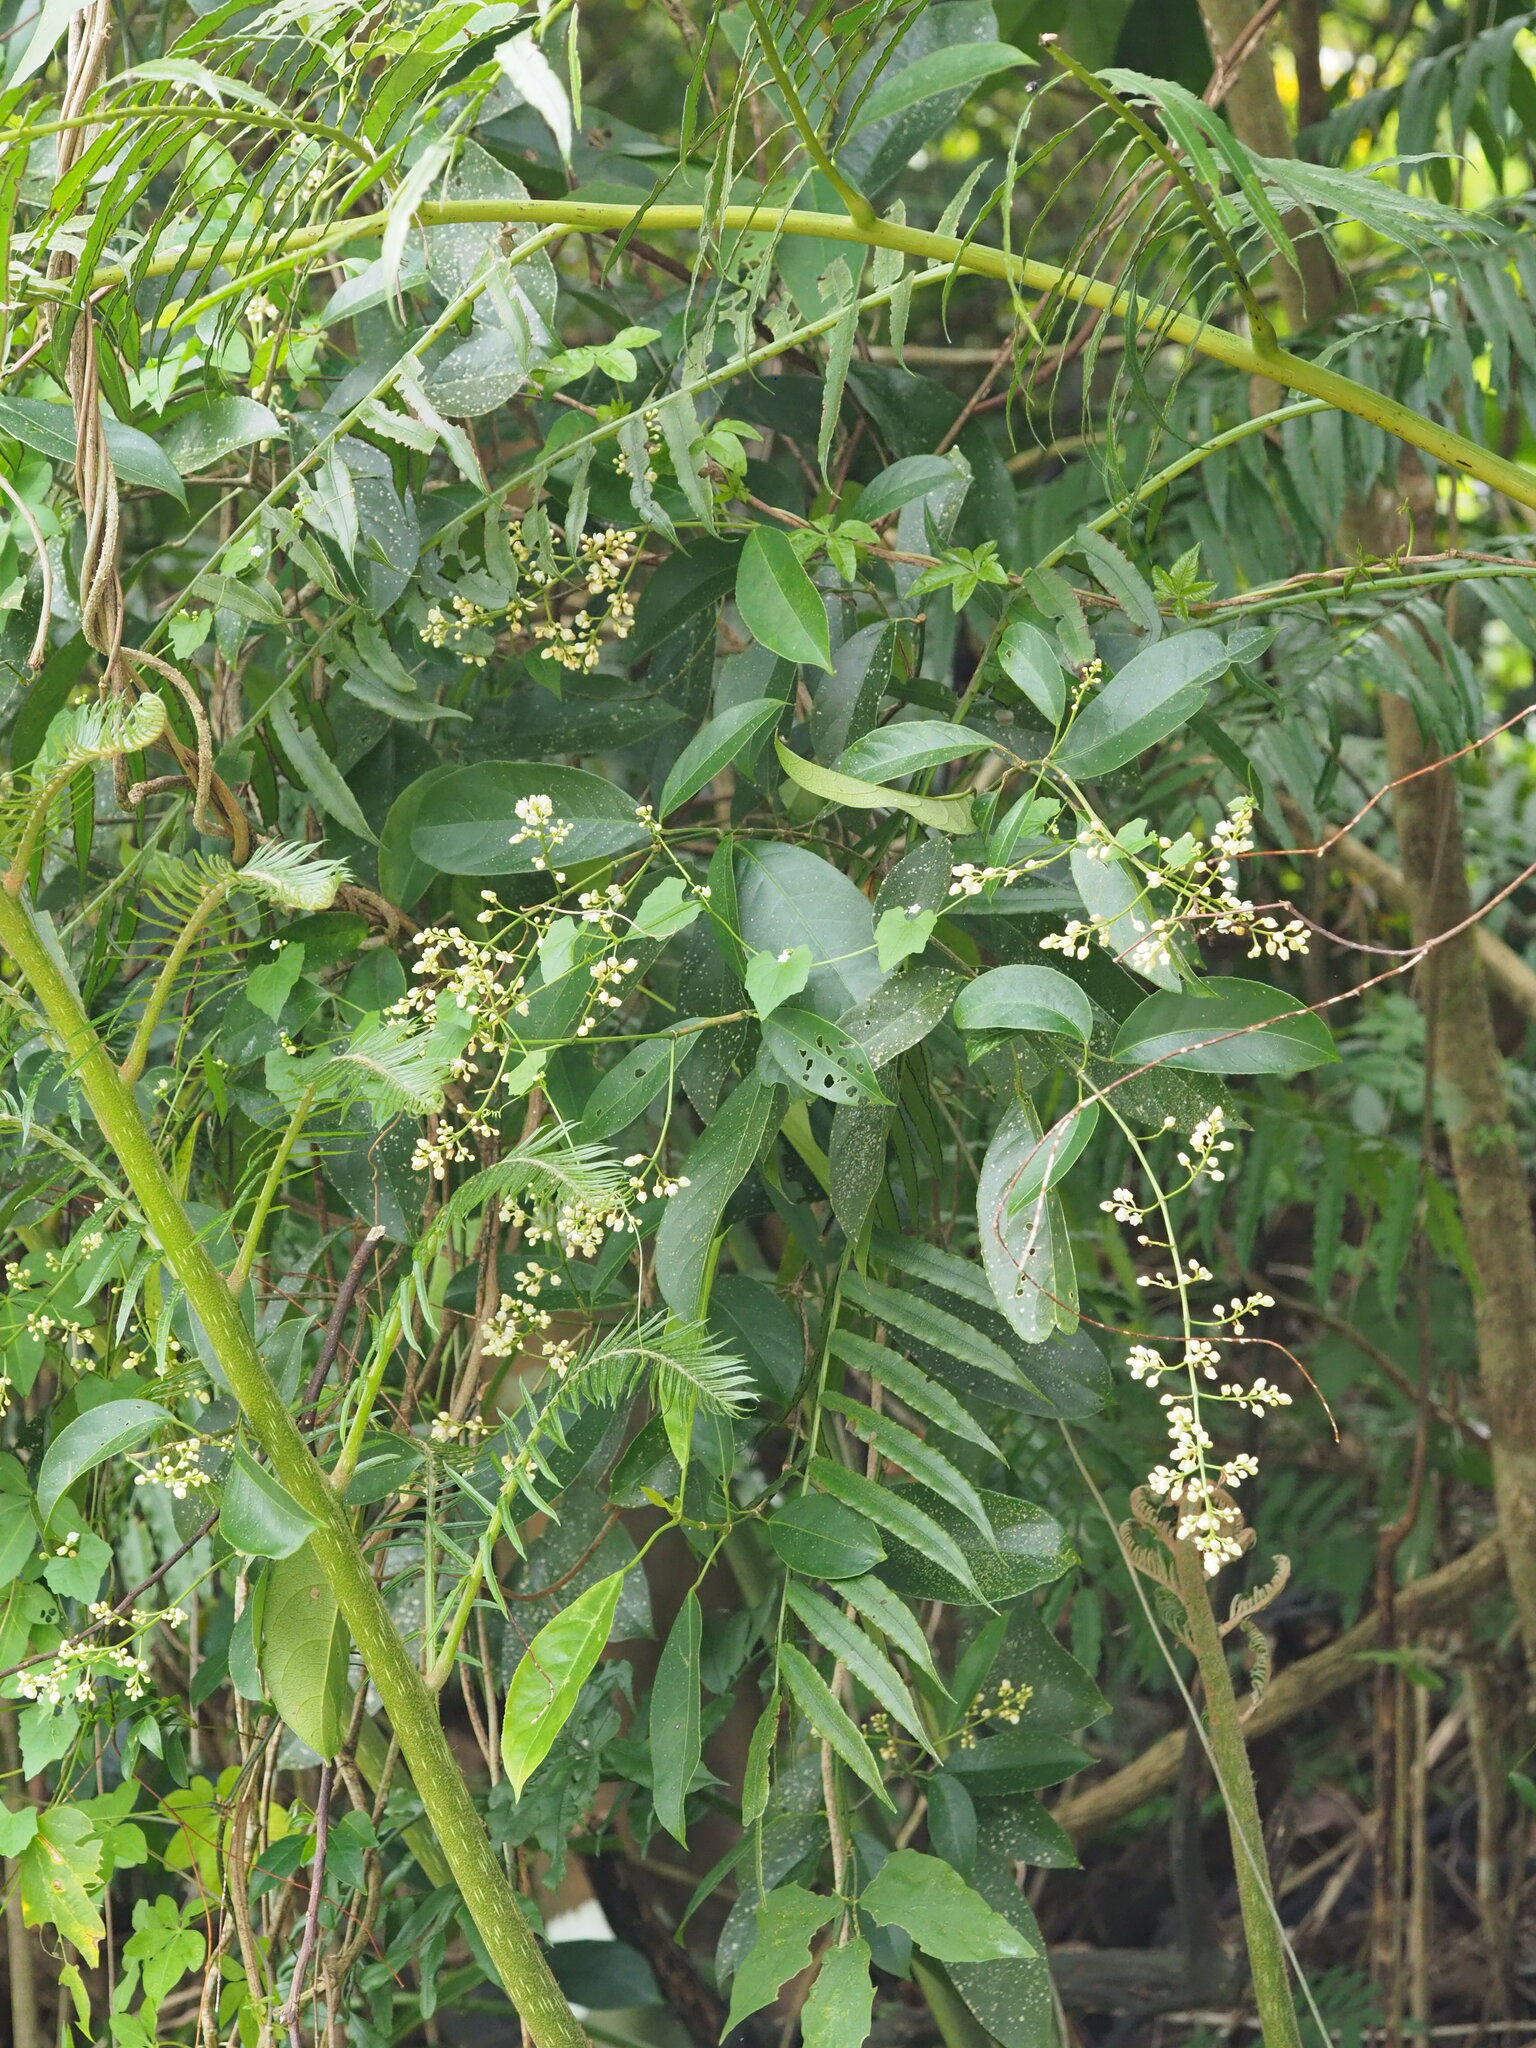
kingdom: Plantae
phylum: Tracheophyta
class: Magnoliopsida
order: Crossosomatales
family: Staphyleaceae
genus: Turpinia
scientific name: Turpinia formosana
